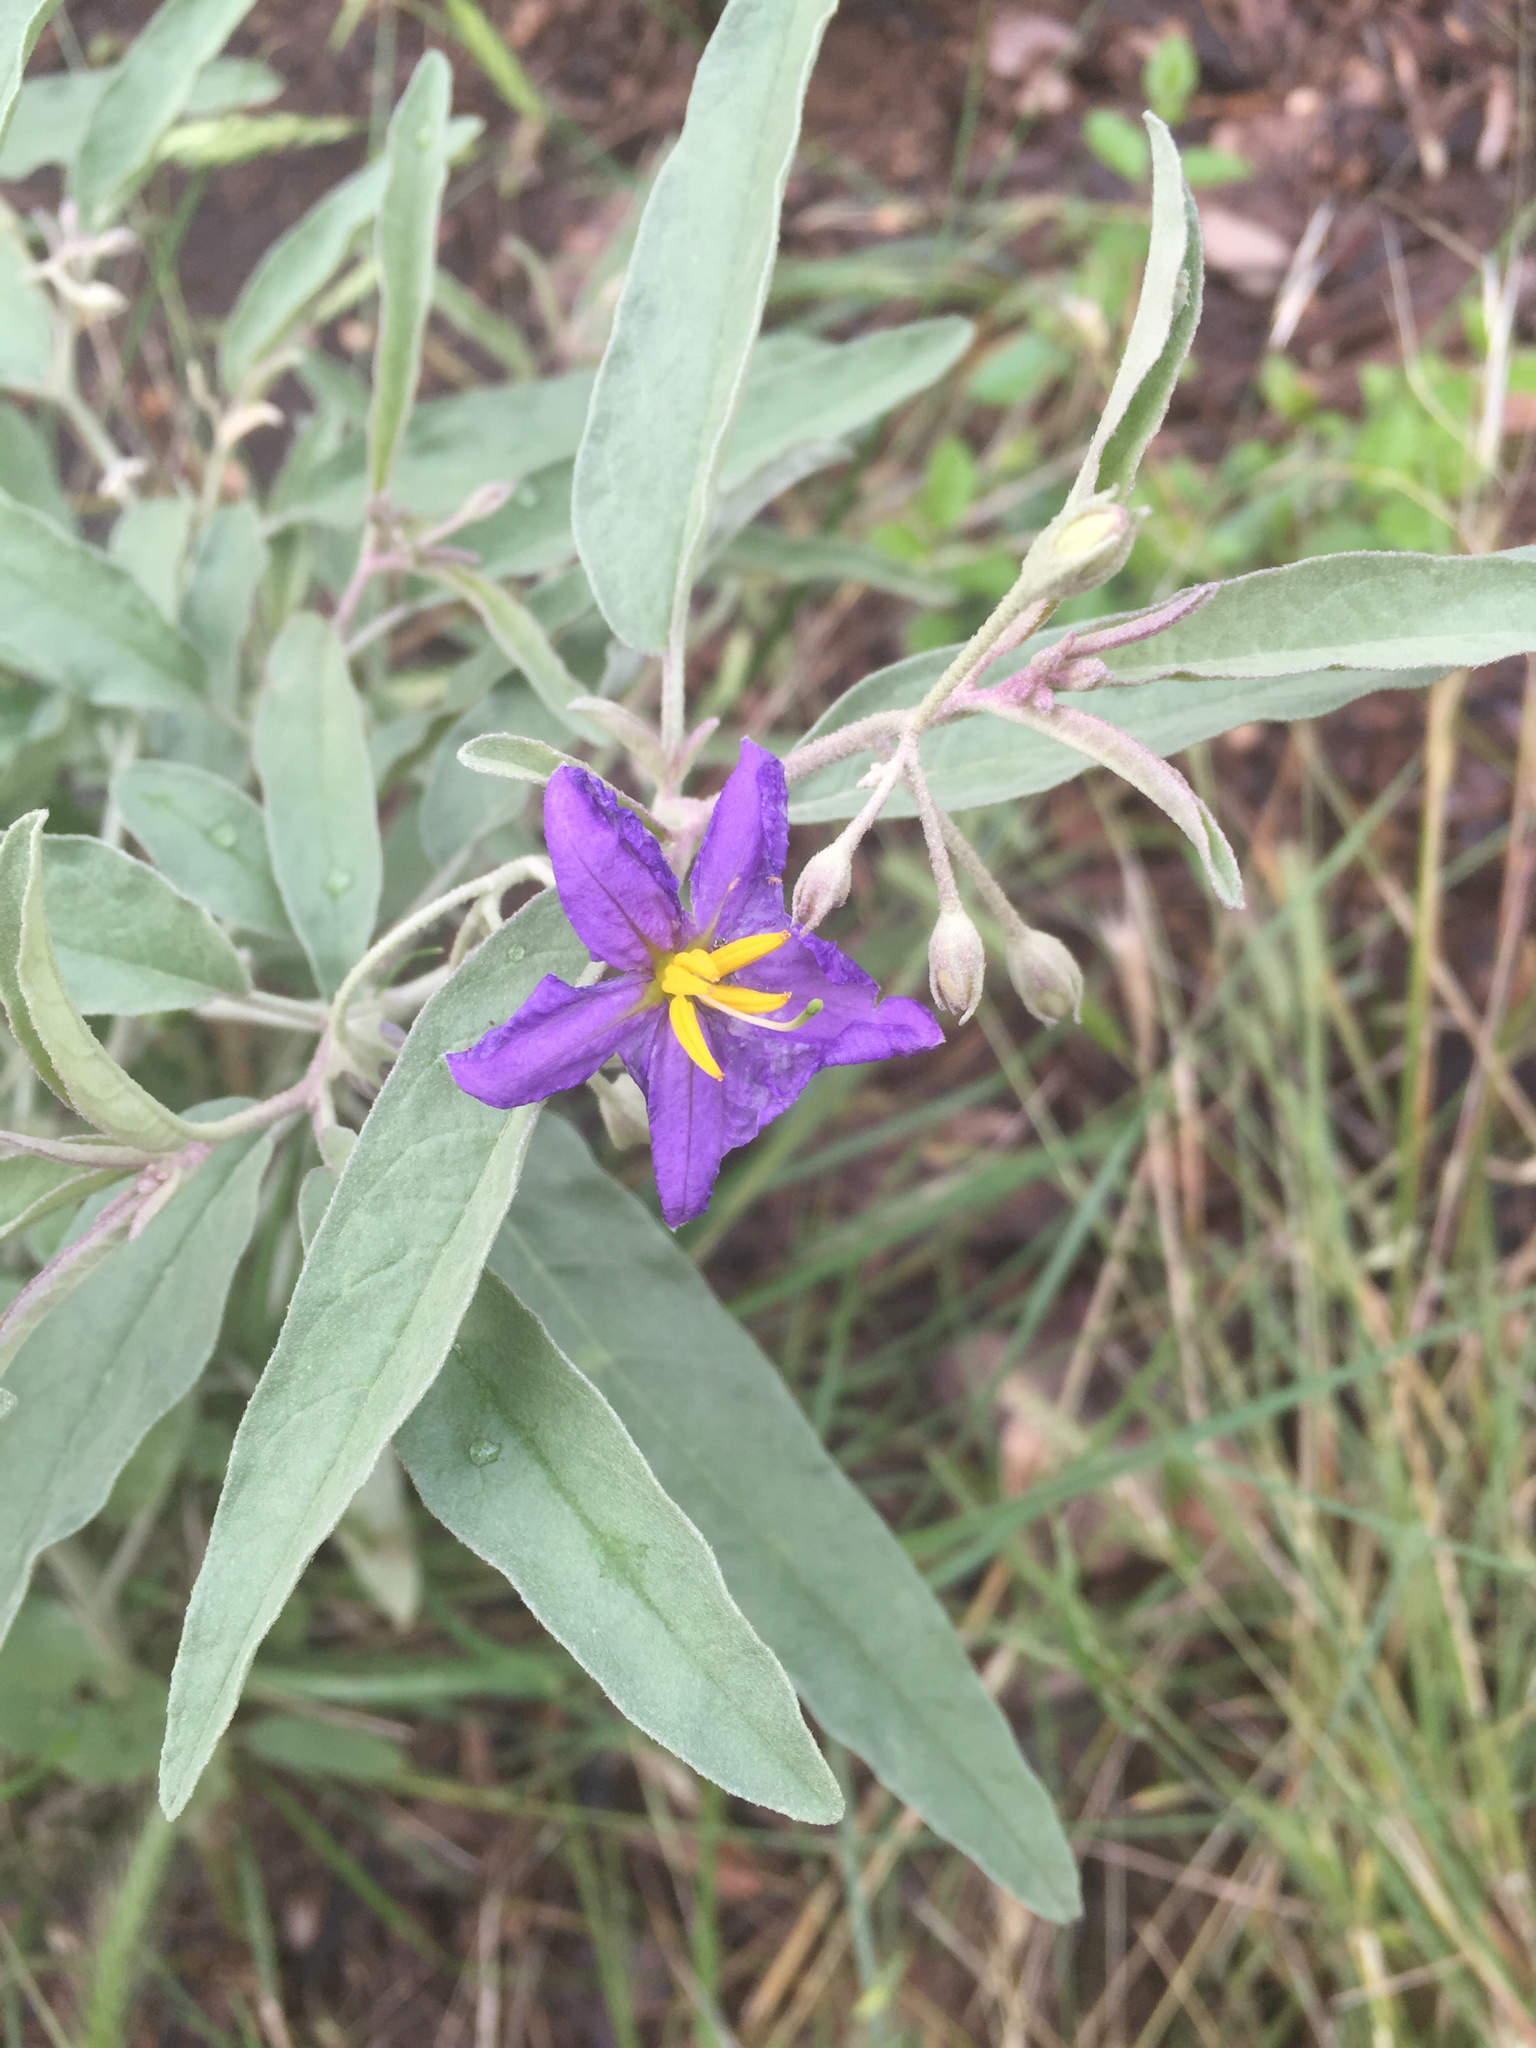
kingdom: Plantae
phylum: Tracheophyta
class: Magnoliopsida
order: Solanales
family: Solanaceae
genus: Solanum
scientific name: Solanum elaeagnifolium
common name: Silverleaf nightshade
